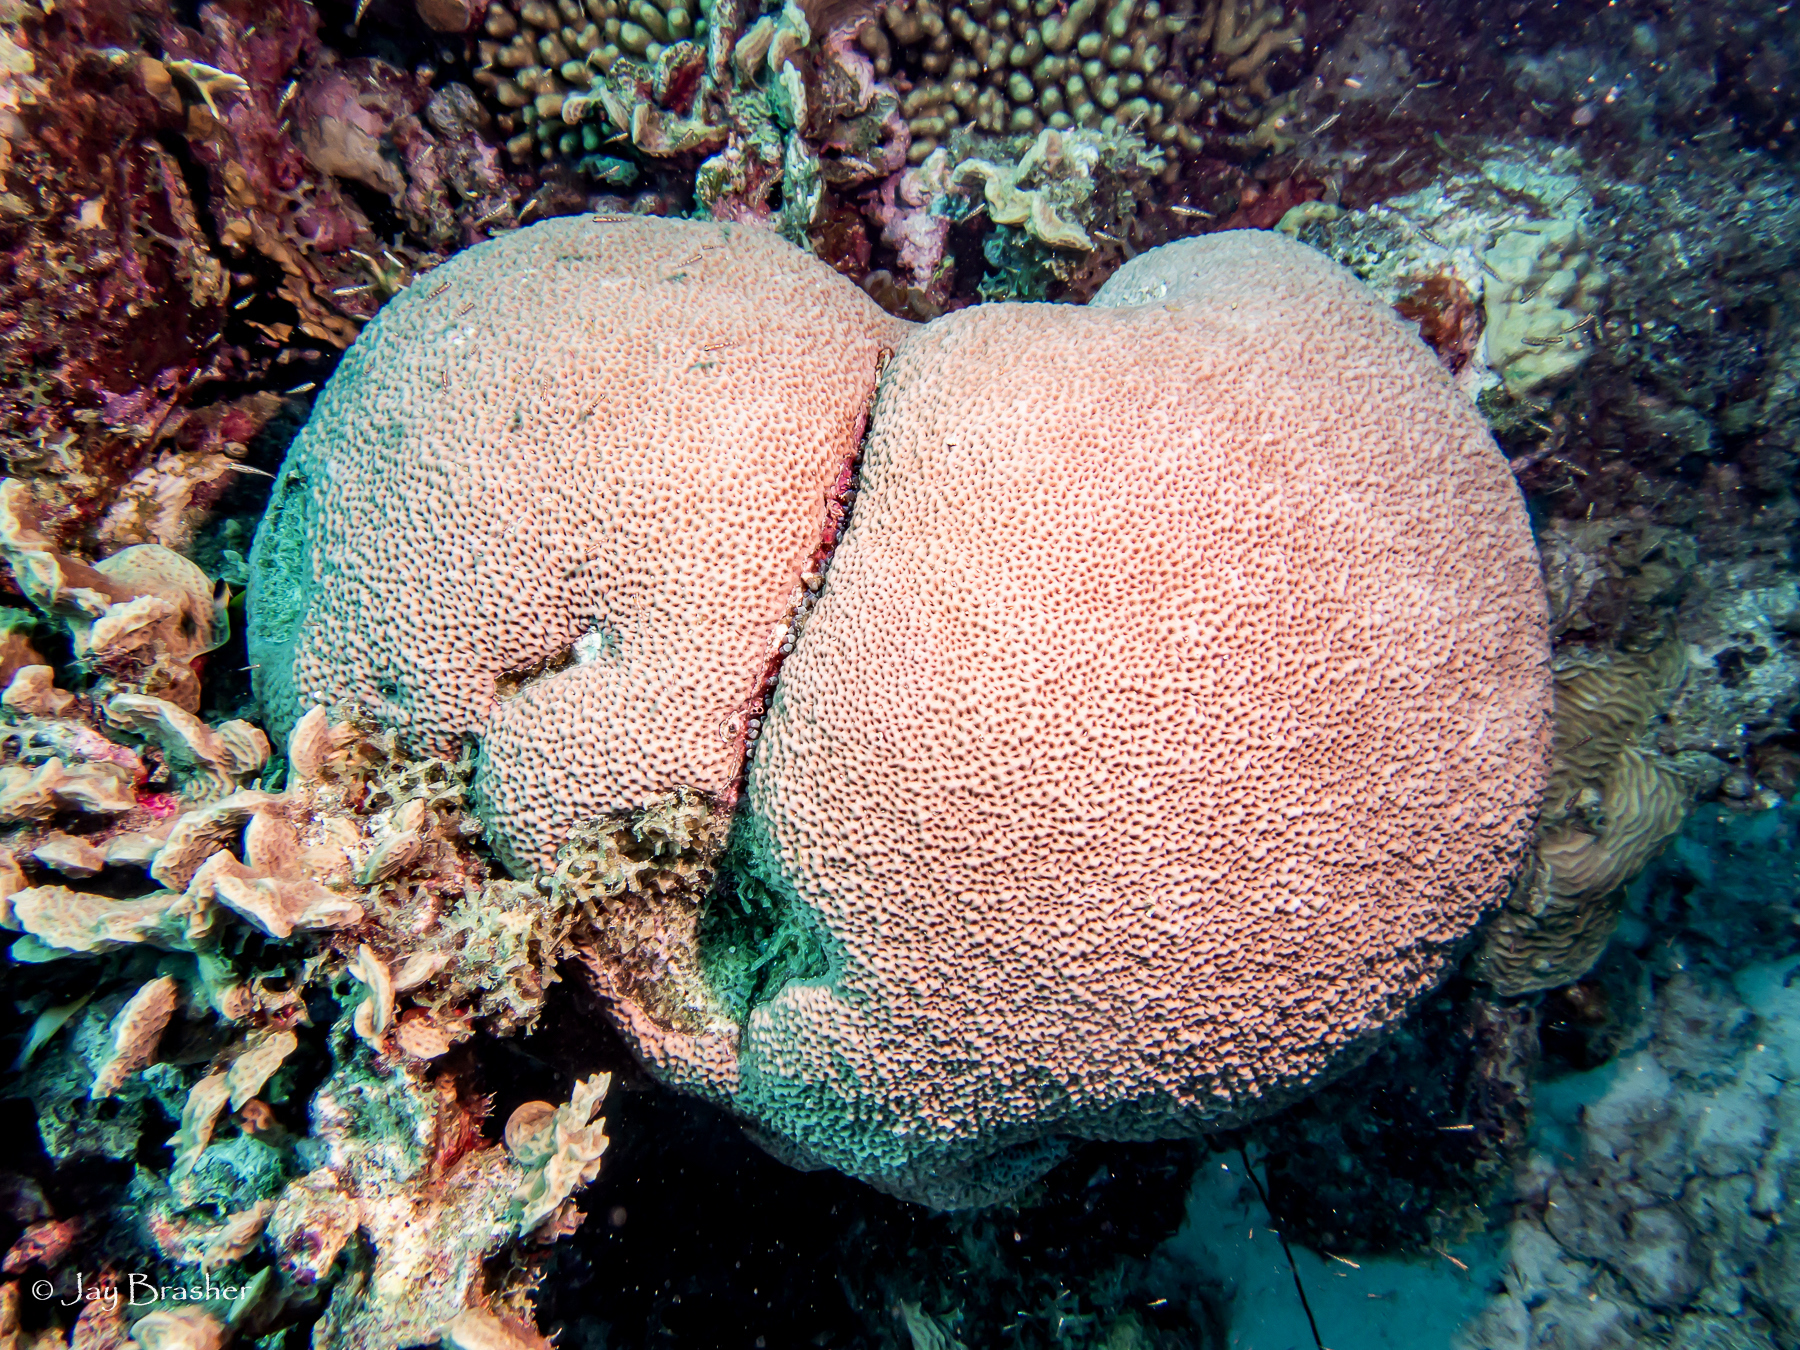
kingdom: Animalia
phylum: Cnidaria
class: Anthozoa
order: Scleractinia
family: Rhizangiidae
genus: Siderastrea
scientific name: Siderastrea siderea
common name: Massive starlet coral
